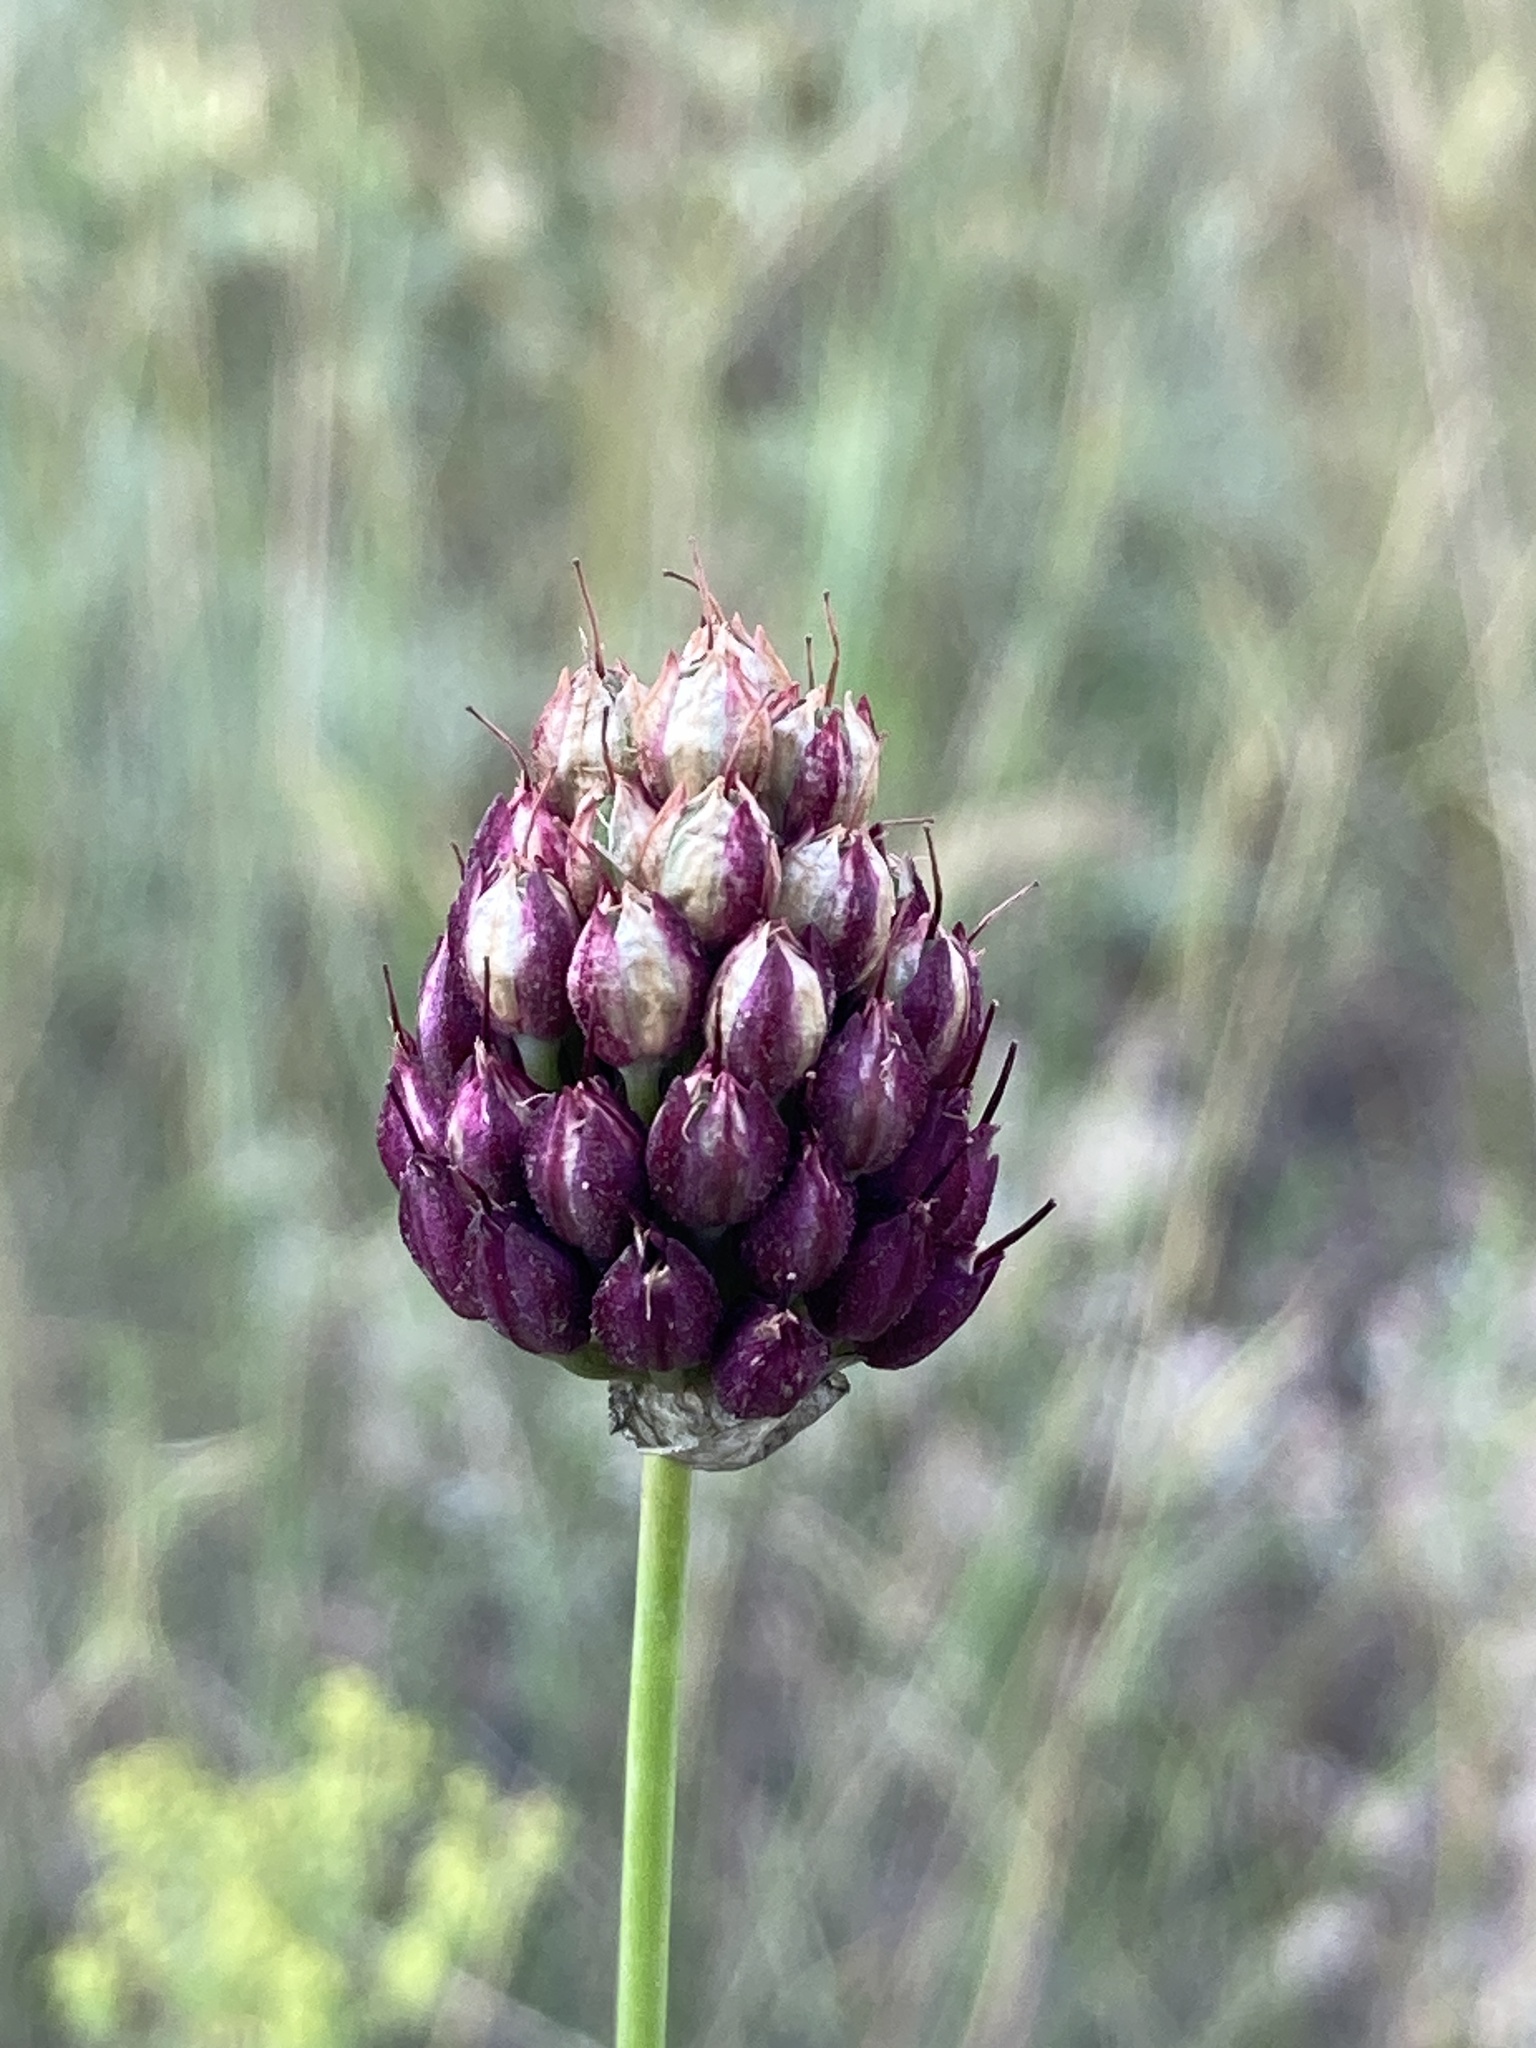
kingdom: Plantae
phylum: Tracheophyta
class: Liliopsida
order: Asparagales
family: Amaryllidaceae
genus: Allium
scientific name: Allium sphaerocephalon
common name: Round-headed leek
